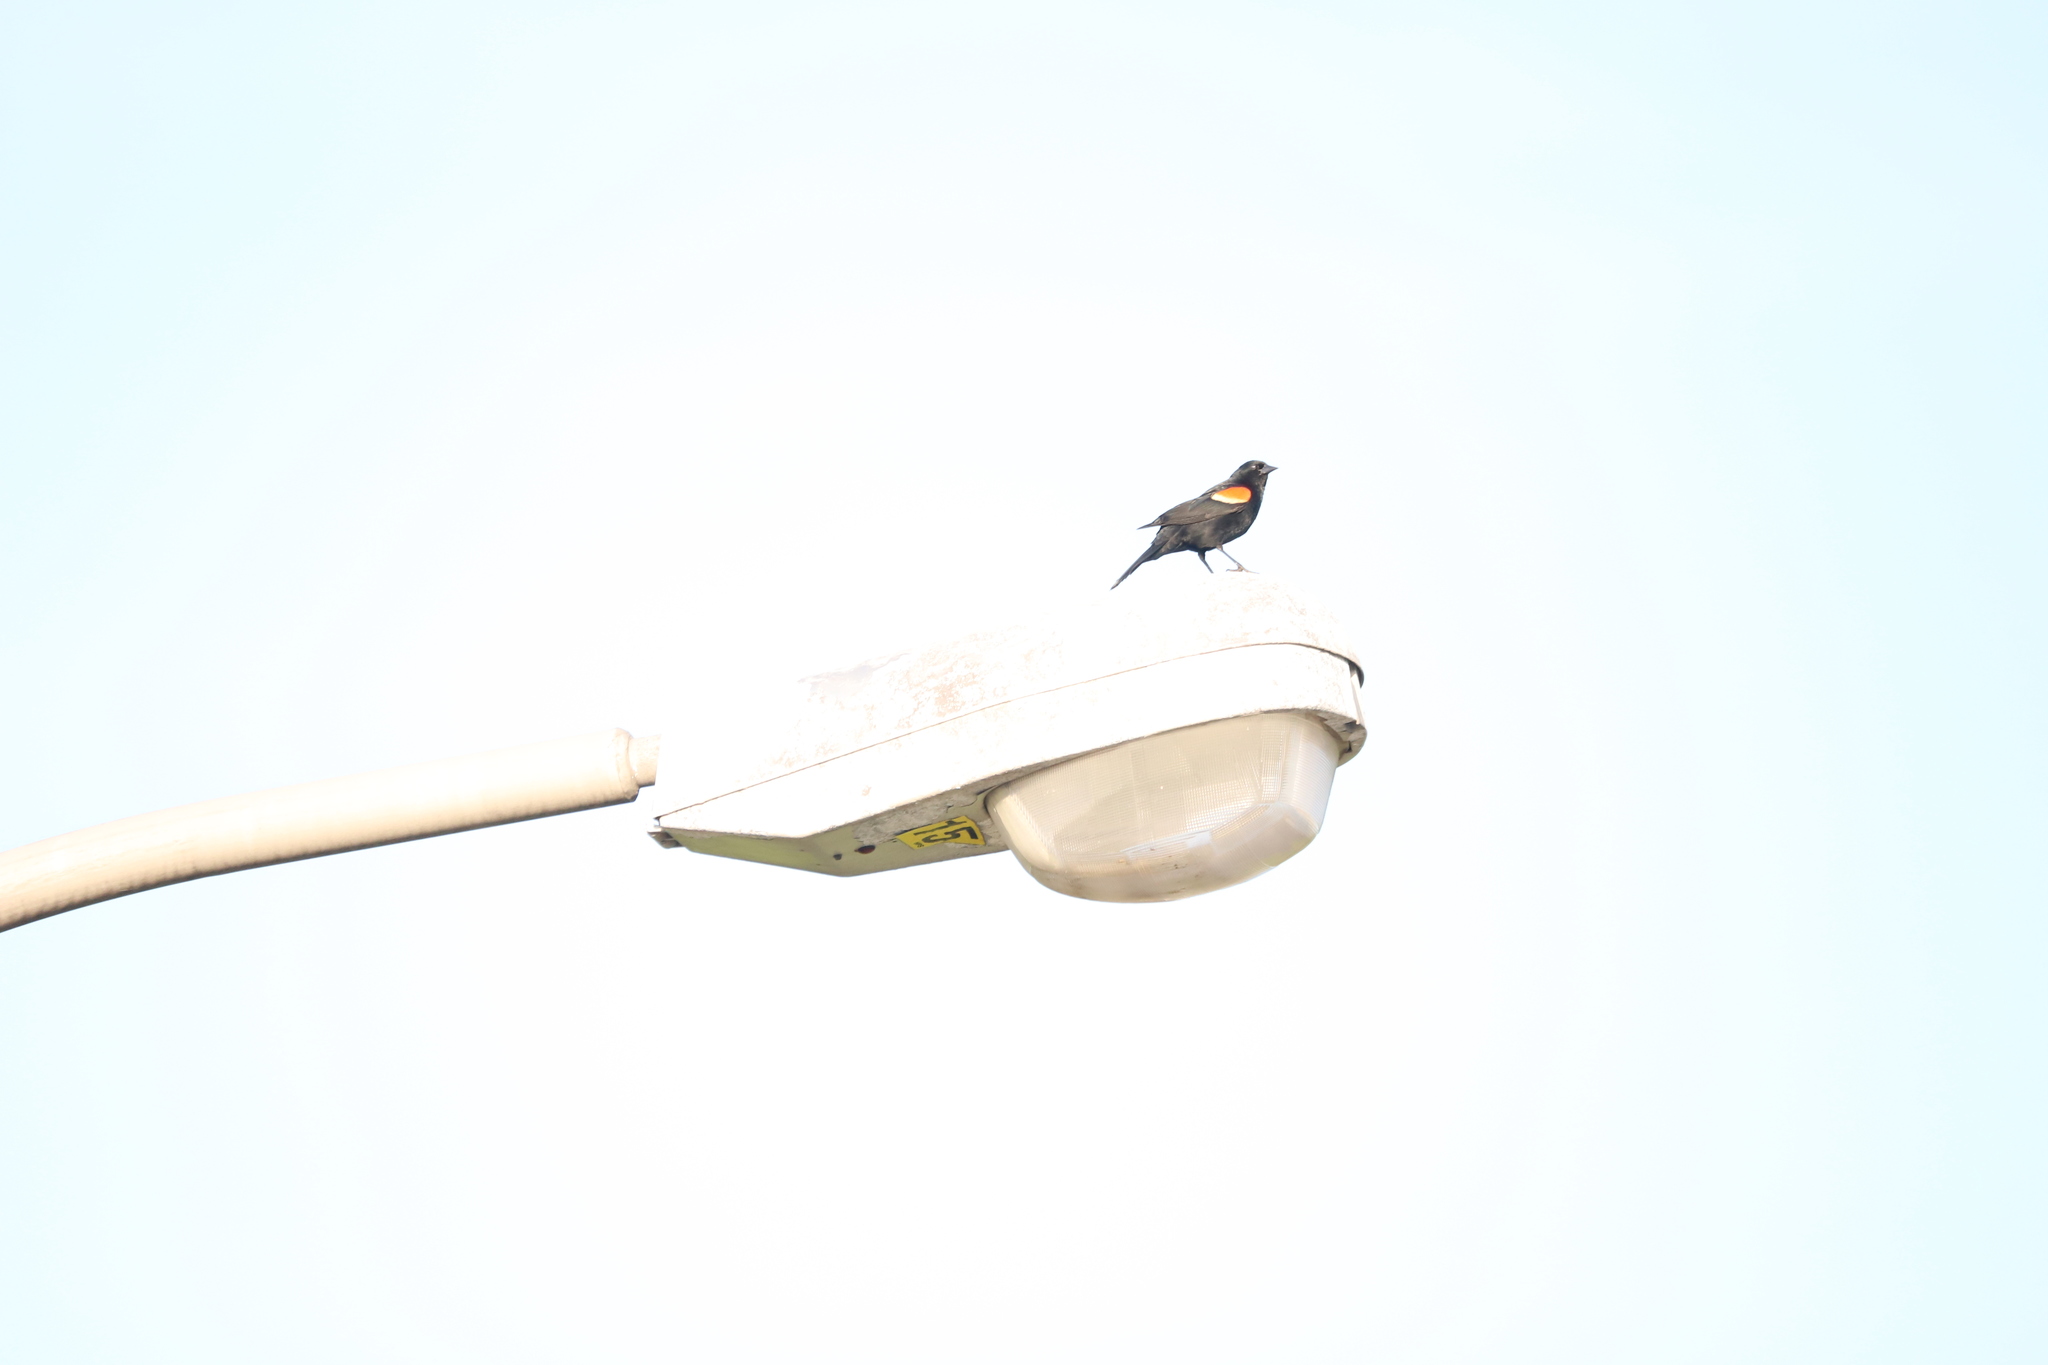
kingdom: Animalia
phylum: Chordata
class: Aves
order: Passeriformes
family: Icteridae
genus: Agelaius
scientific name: Agelaius phoeniceus
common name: Red-winged blackbird
